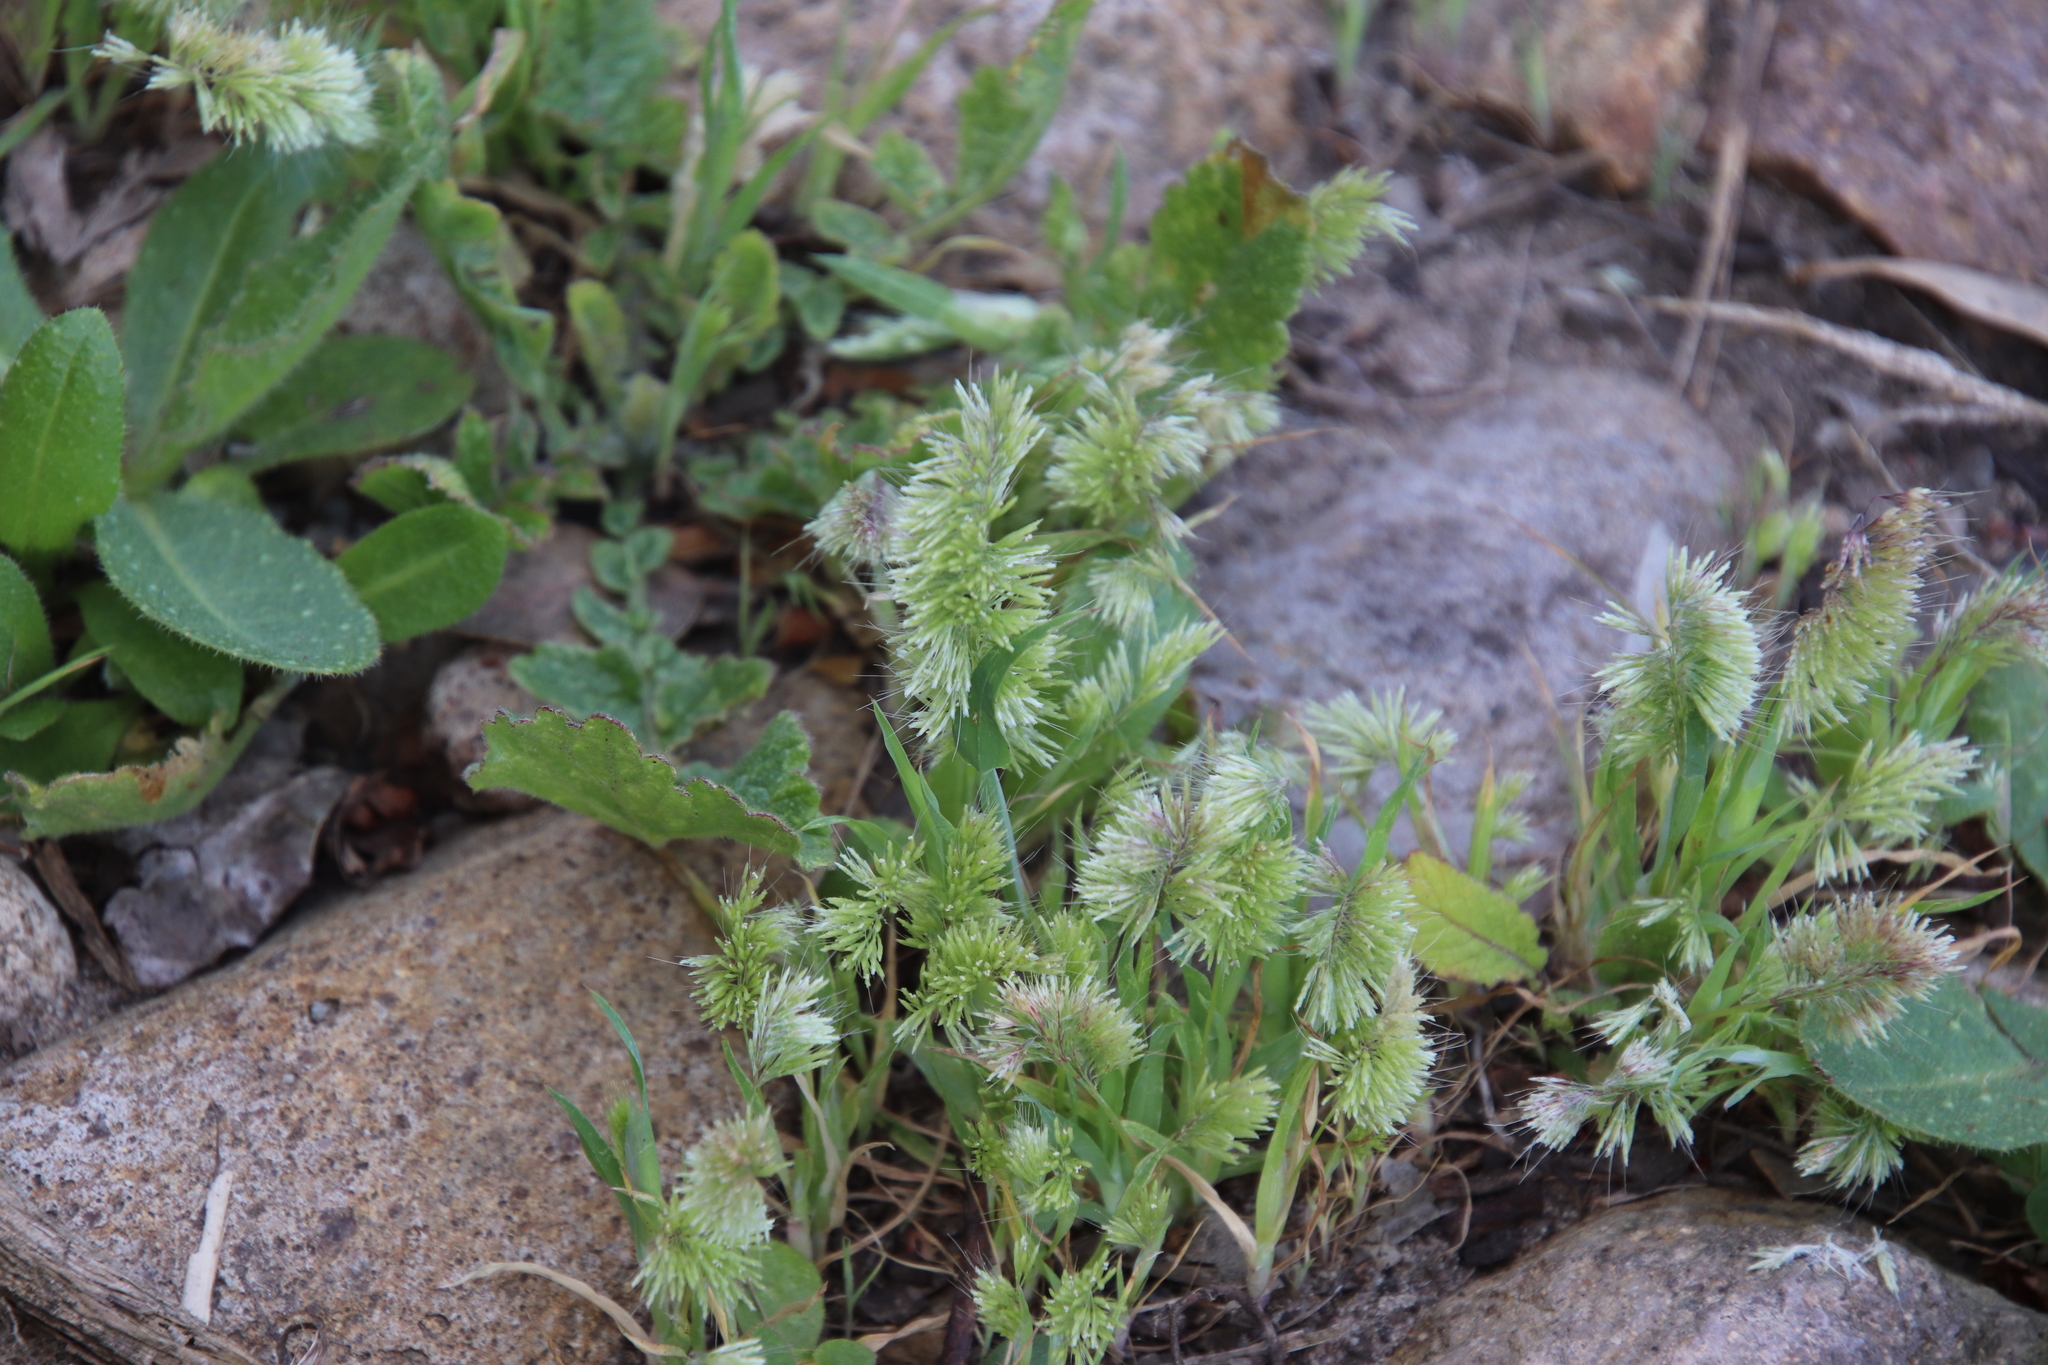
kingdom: Plantae
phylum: Tracheophyta
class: Liliopsida
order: Poales
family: Poaceae
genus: Lamarckia
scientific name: Lamarckia aurea
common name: Golden dog's-tail
